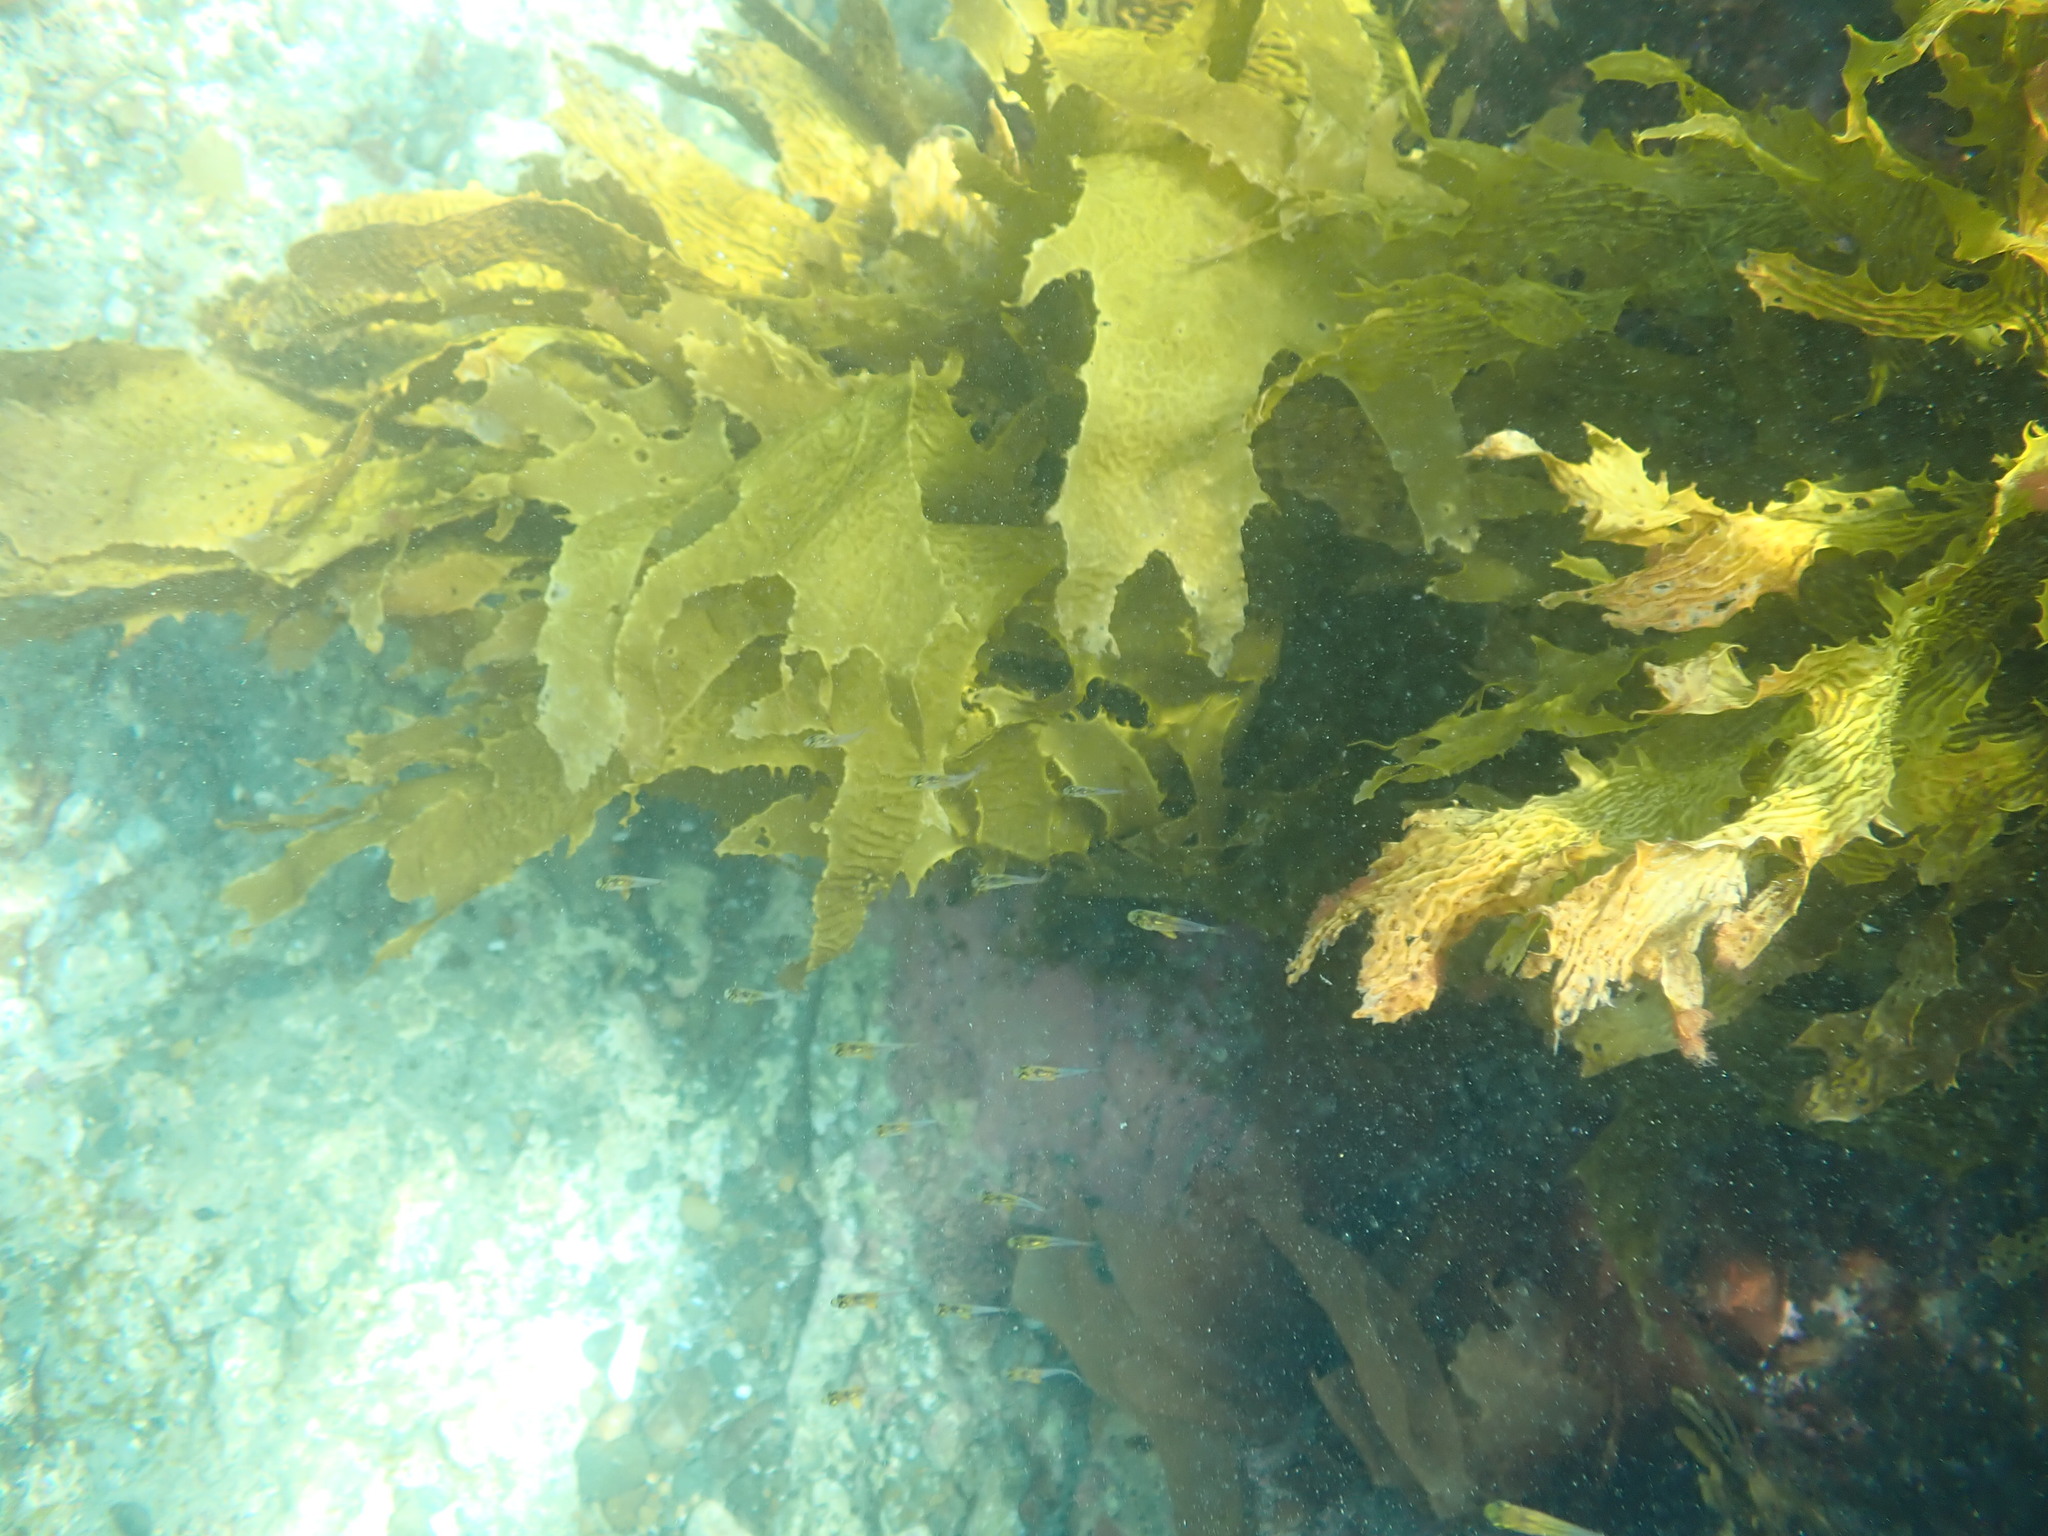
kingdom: Animalia
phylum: Chordata
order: Perciformes
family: Pempheridae
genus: Pempheris
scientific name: Pempheris adspersa
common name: Bigeye
